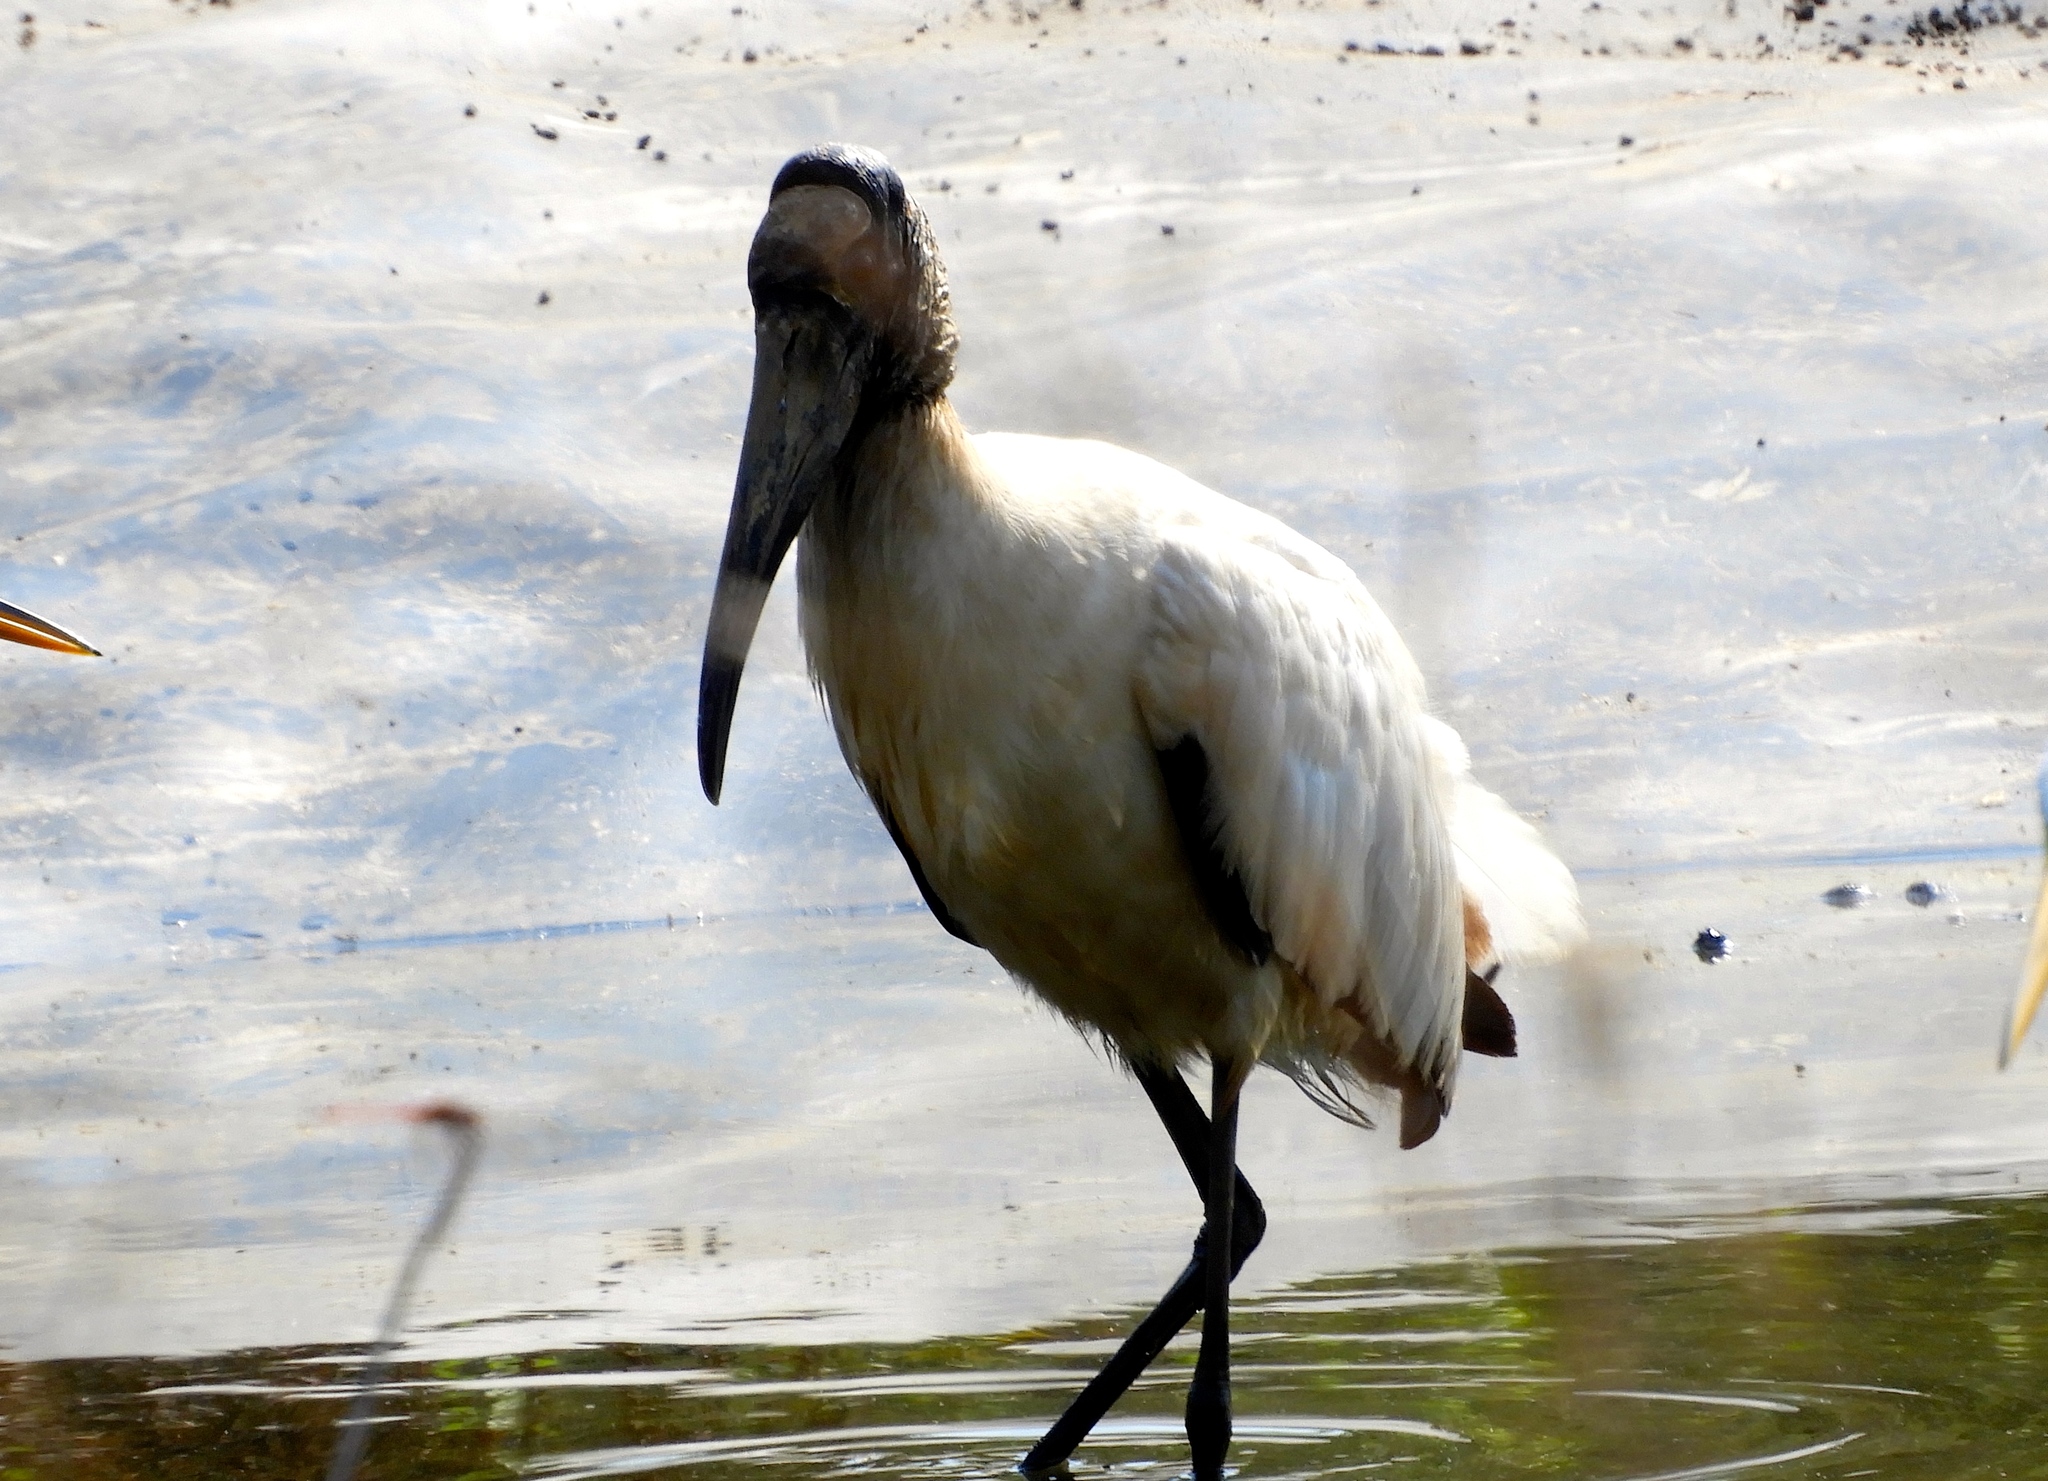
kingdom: Animalia
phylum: Chordata
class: Aves
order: Ciconiiformes
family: Ciconiidae
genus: Mycteria
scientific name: Mycteria americana
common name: Wood stork
